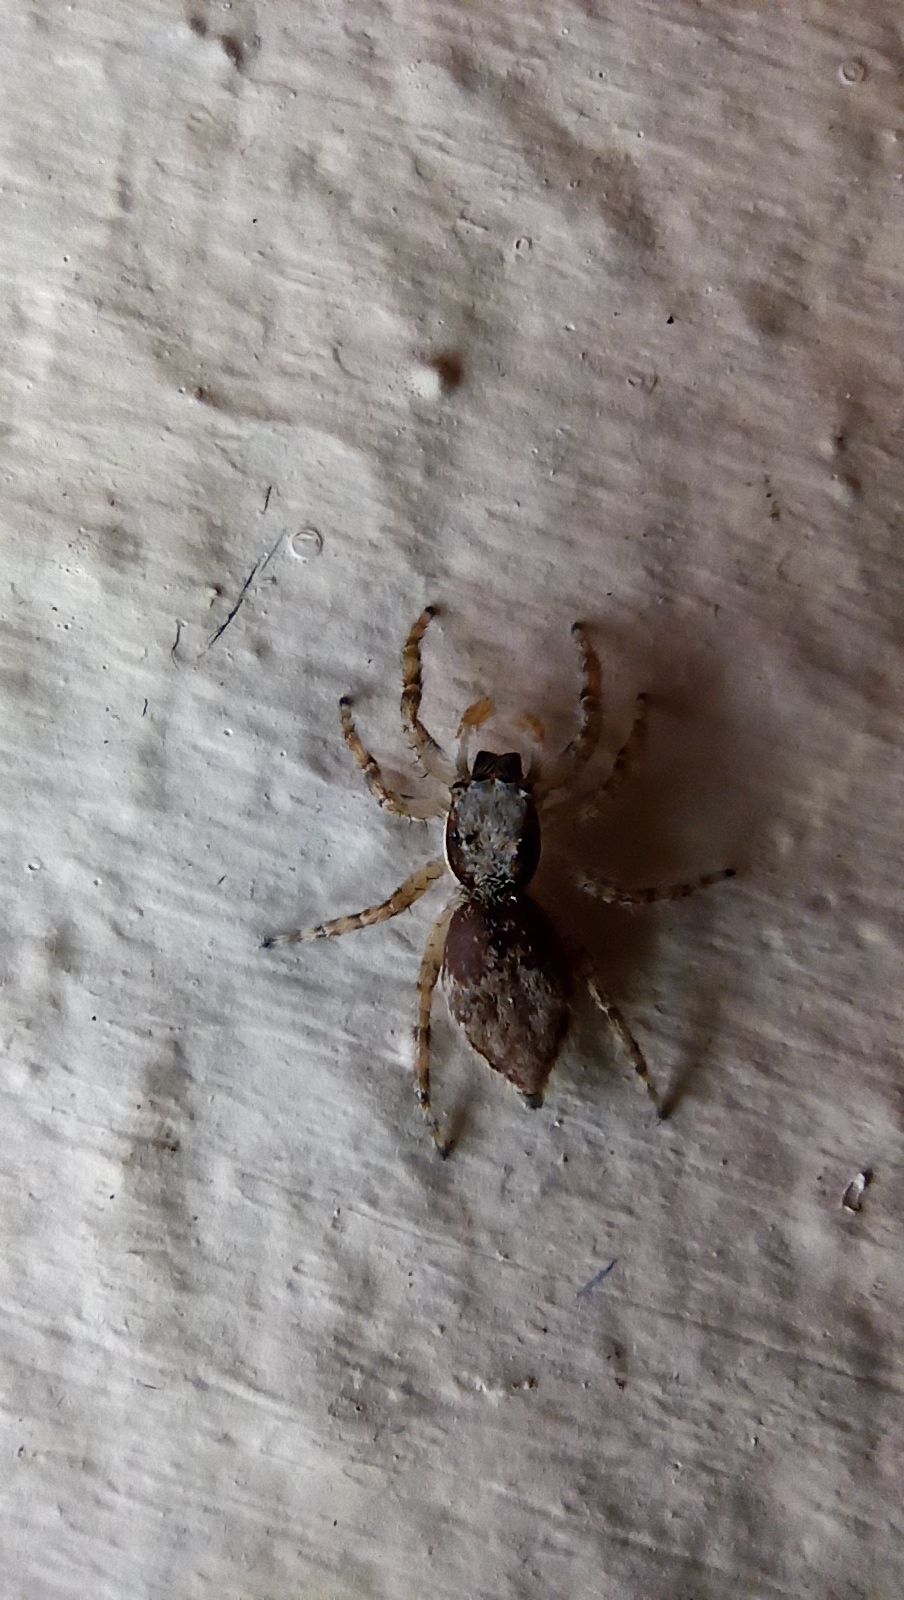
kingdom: Animalia
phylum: Arthropoda
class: Arachnida
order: Araneae
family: Salticidae
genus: Menemerus
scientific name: Menemerus bivittatus
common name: Gray wall jumper
